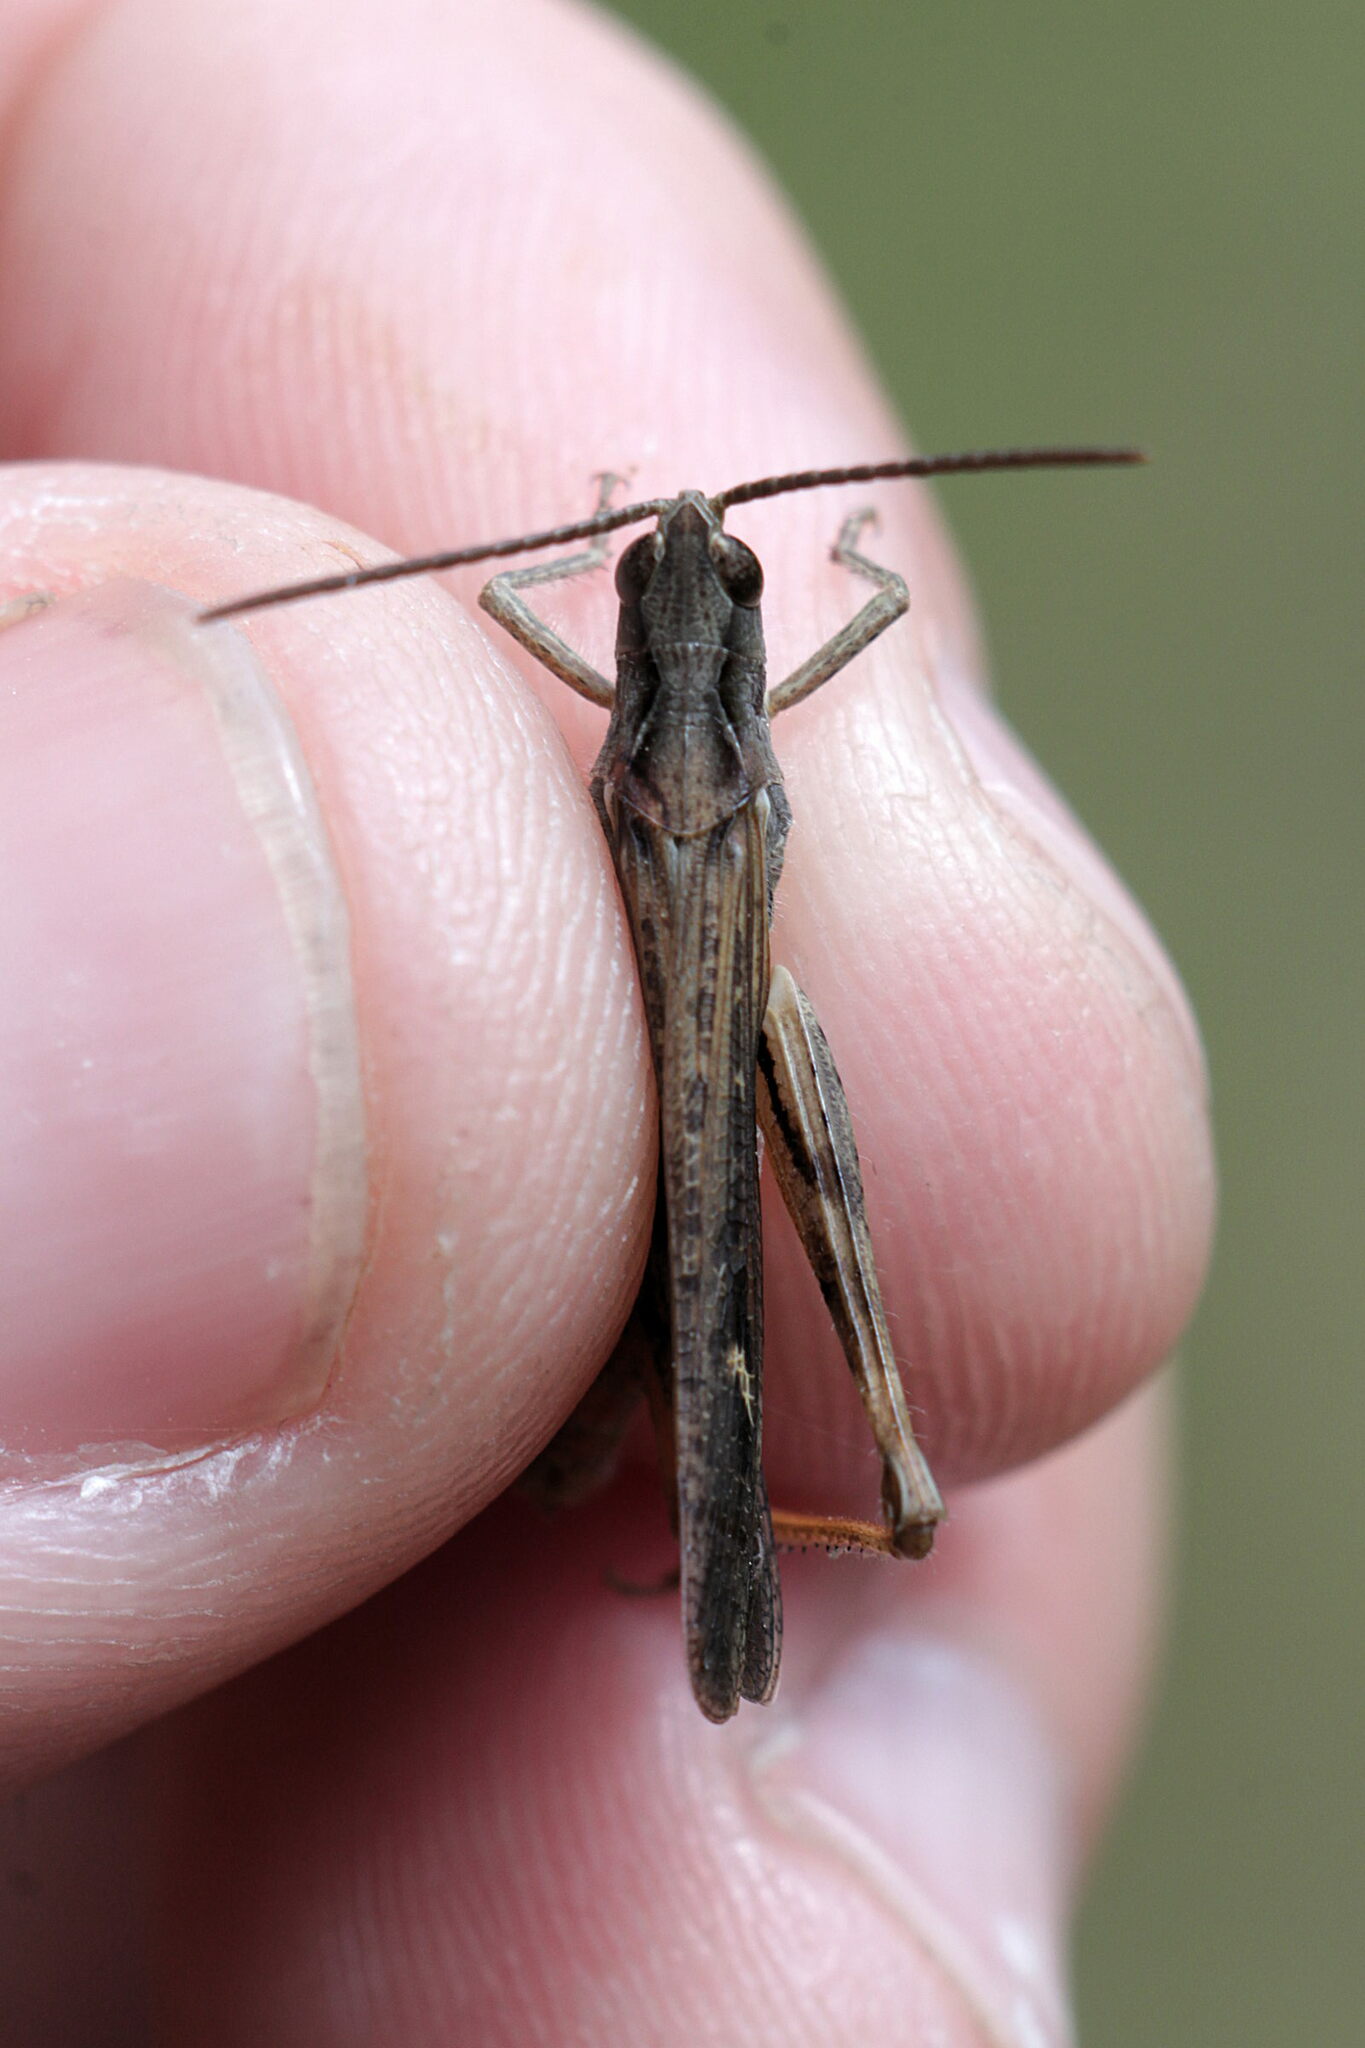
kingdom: Animalia
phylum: Arthropoda
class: Insecta
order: Orthoptera
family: Acrididae
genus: Chorthippus
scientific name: Chorthippus brunneus
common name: Field grasshopper
